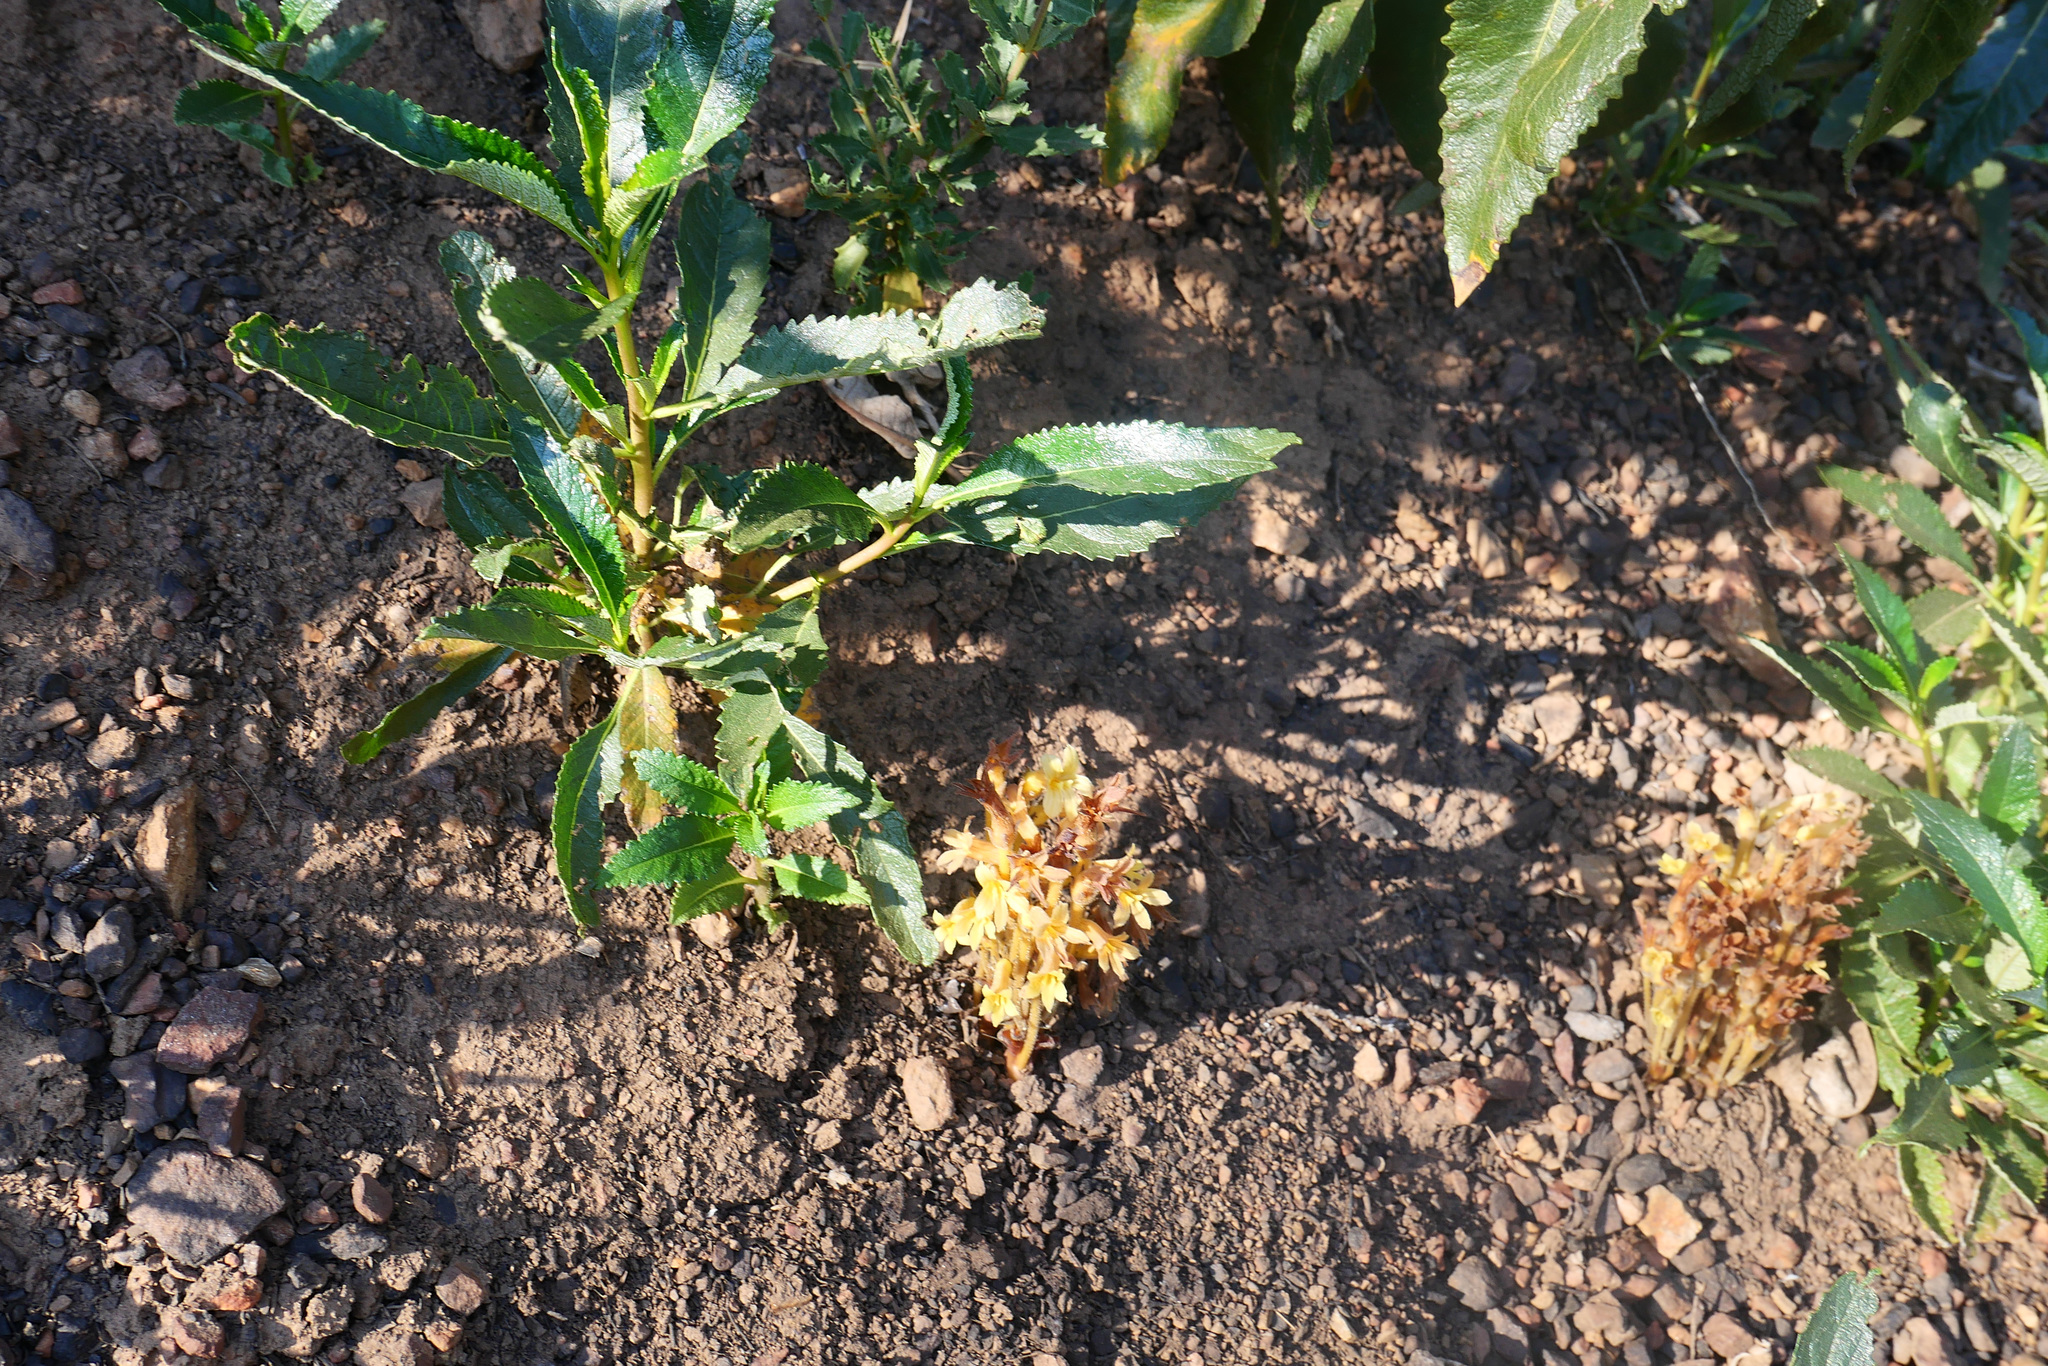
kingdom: Plantae
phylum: Tracheophyta
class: Magnoliopsida
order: Lamiales
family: Orobanchaceae
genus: Aphyllon
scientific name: Aphyllon franciscanum
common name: San francisco broomrape
